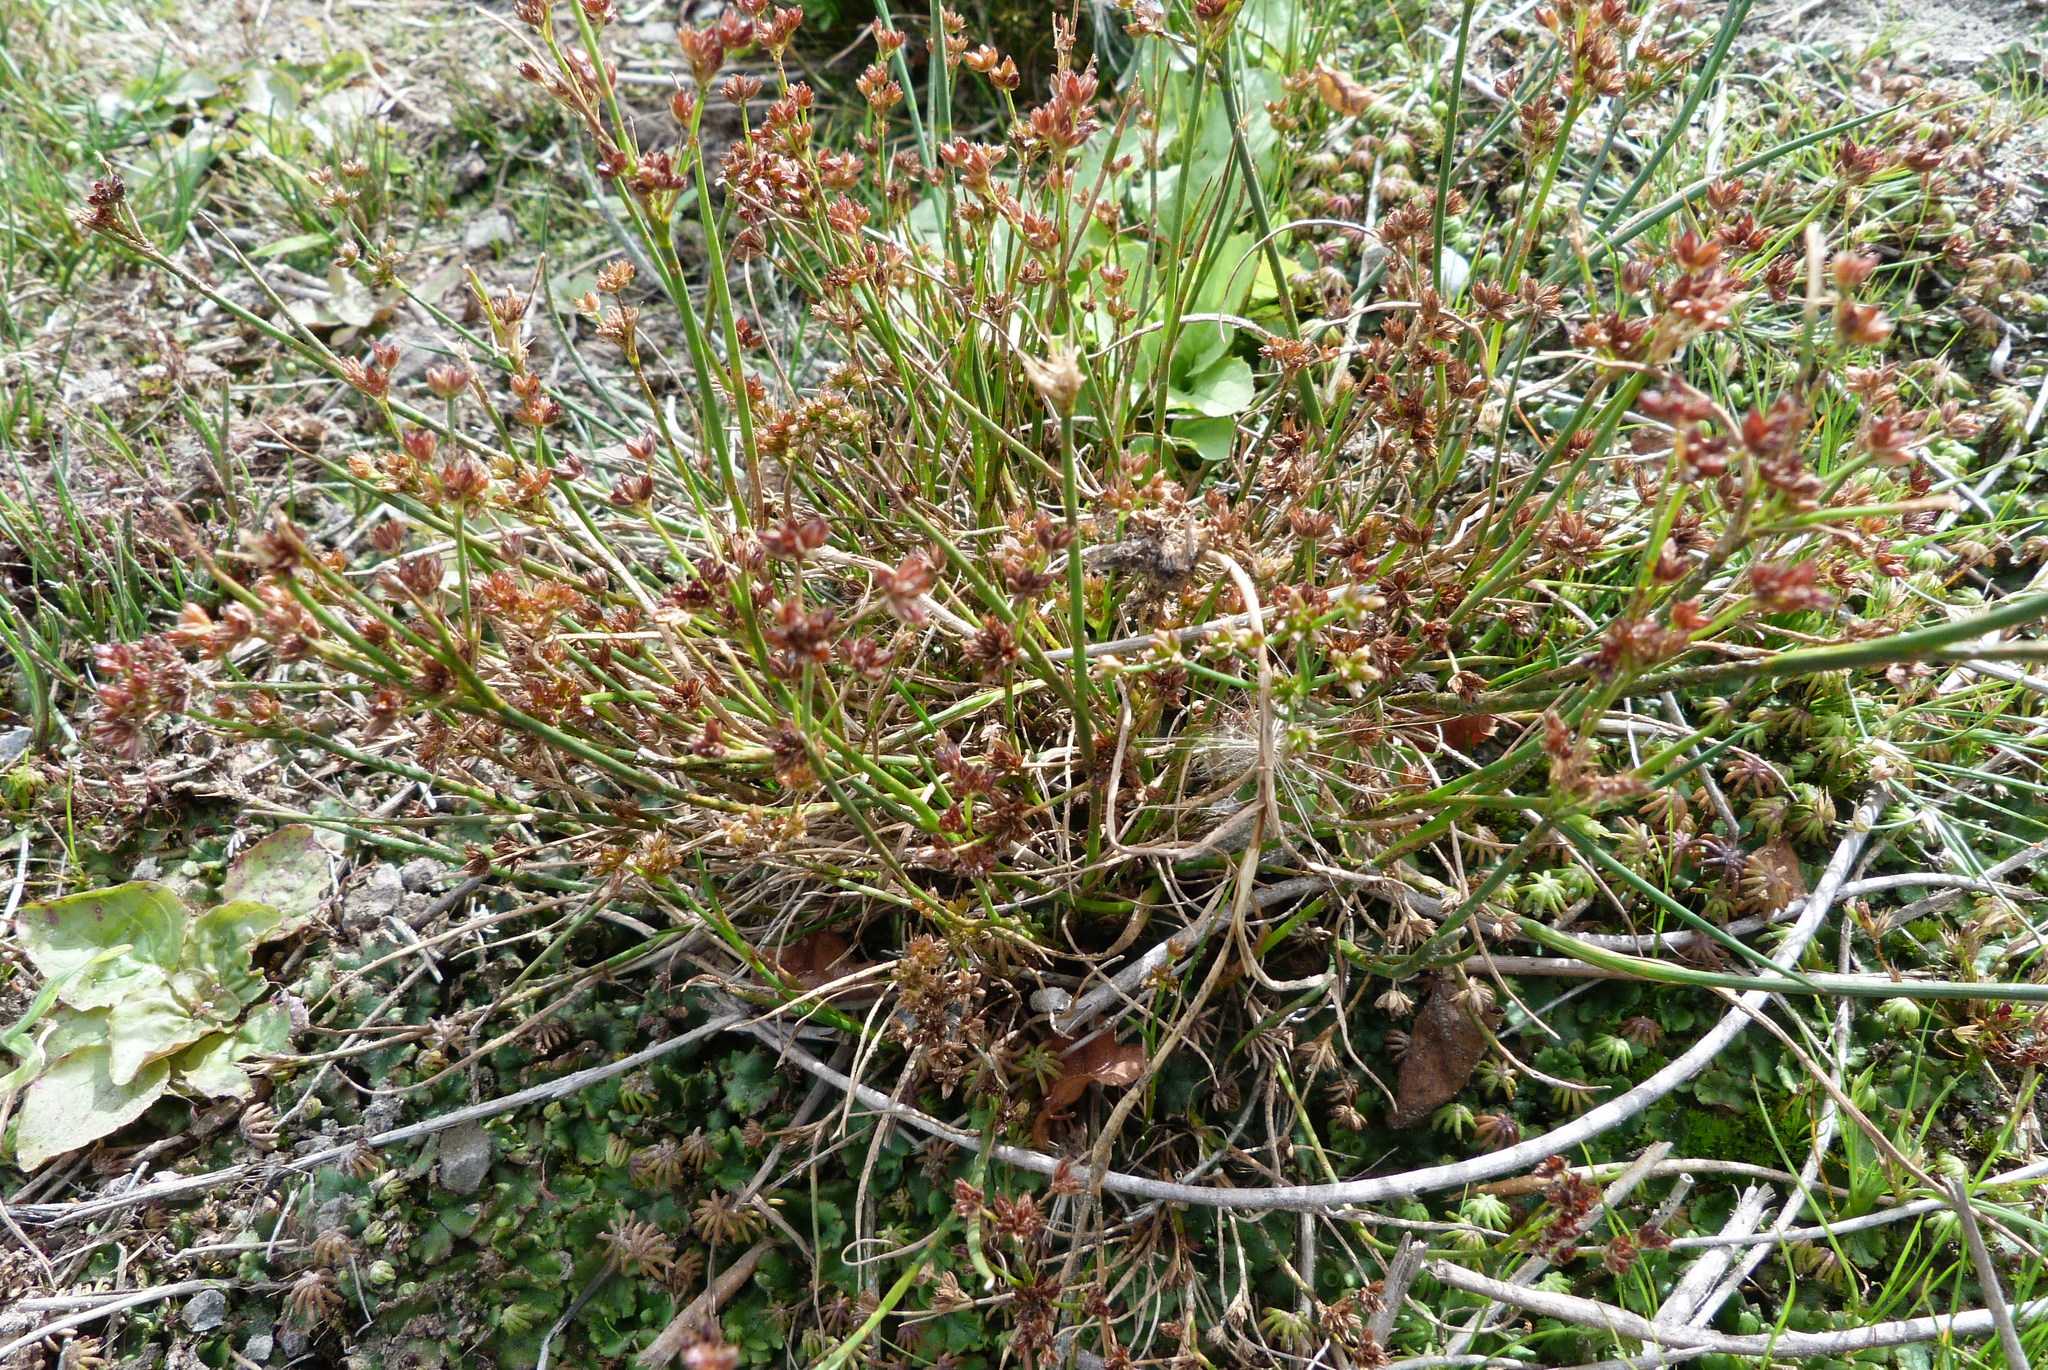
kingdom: Plantae
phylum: Tracheophyta
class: Liliopsida
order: Poales
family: Juncaceae
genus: Juncus
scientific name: Juncus articulatus
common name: Jointed rush
